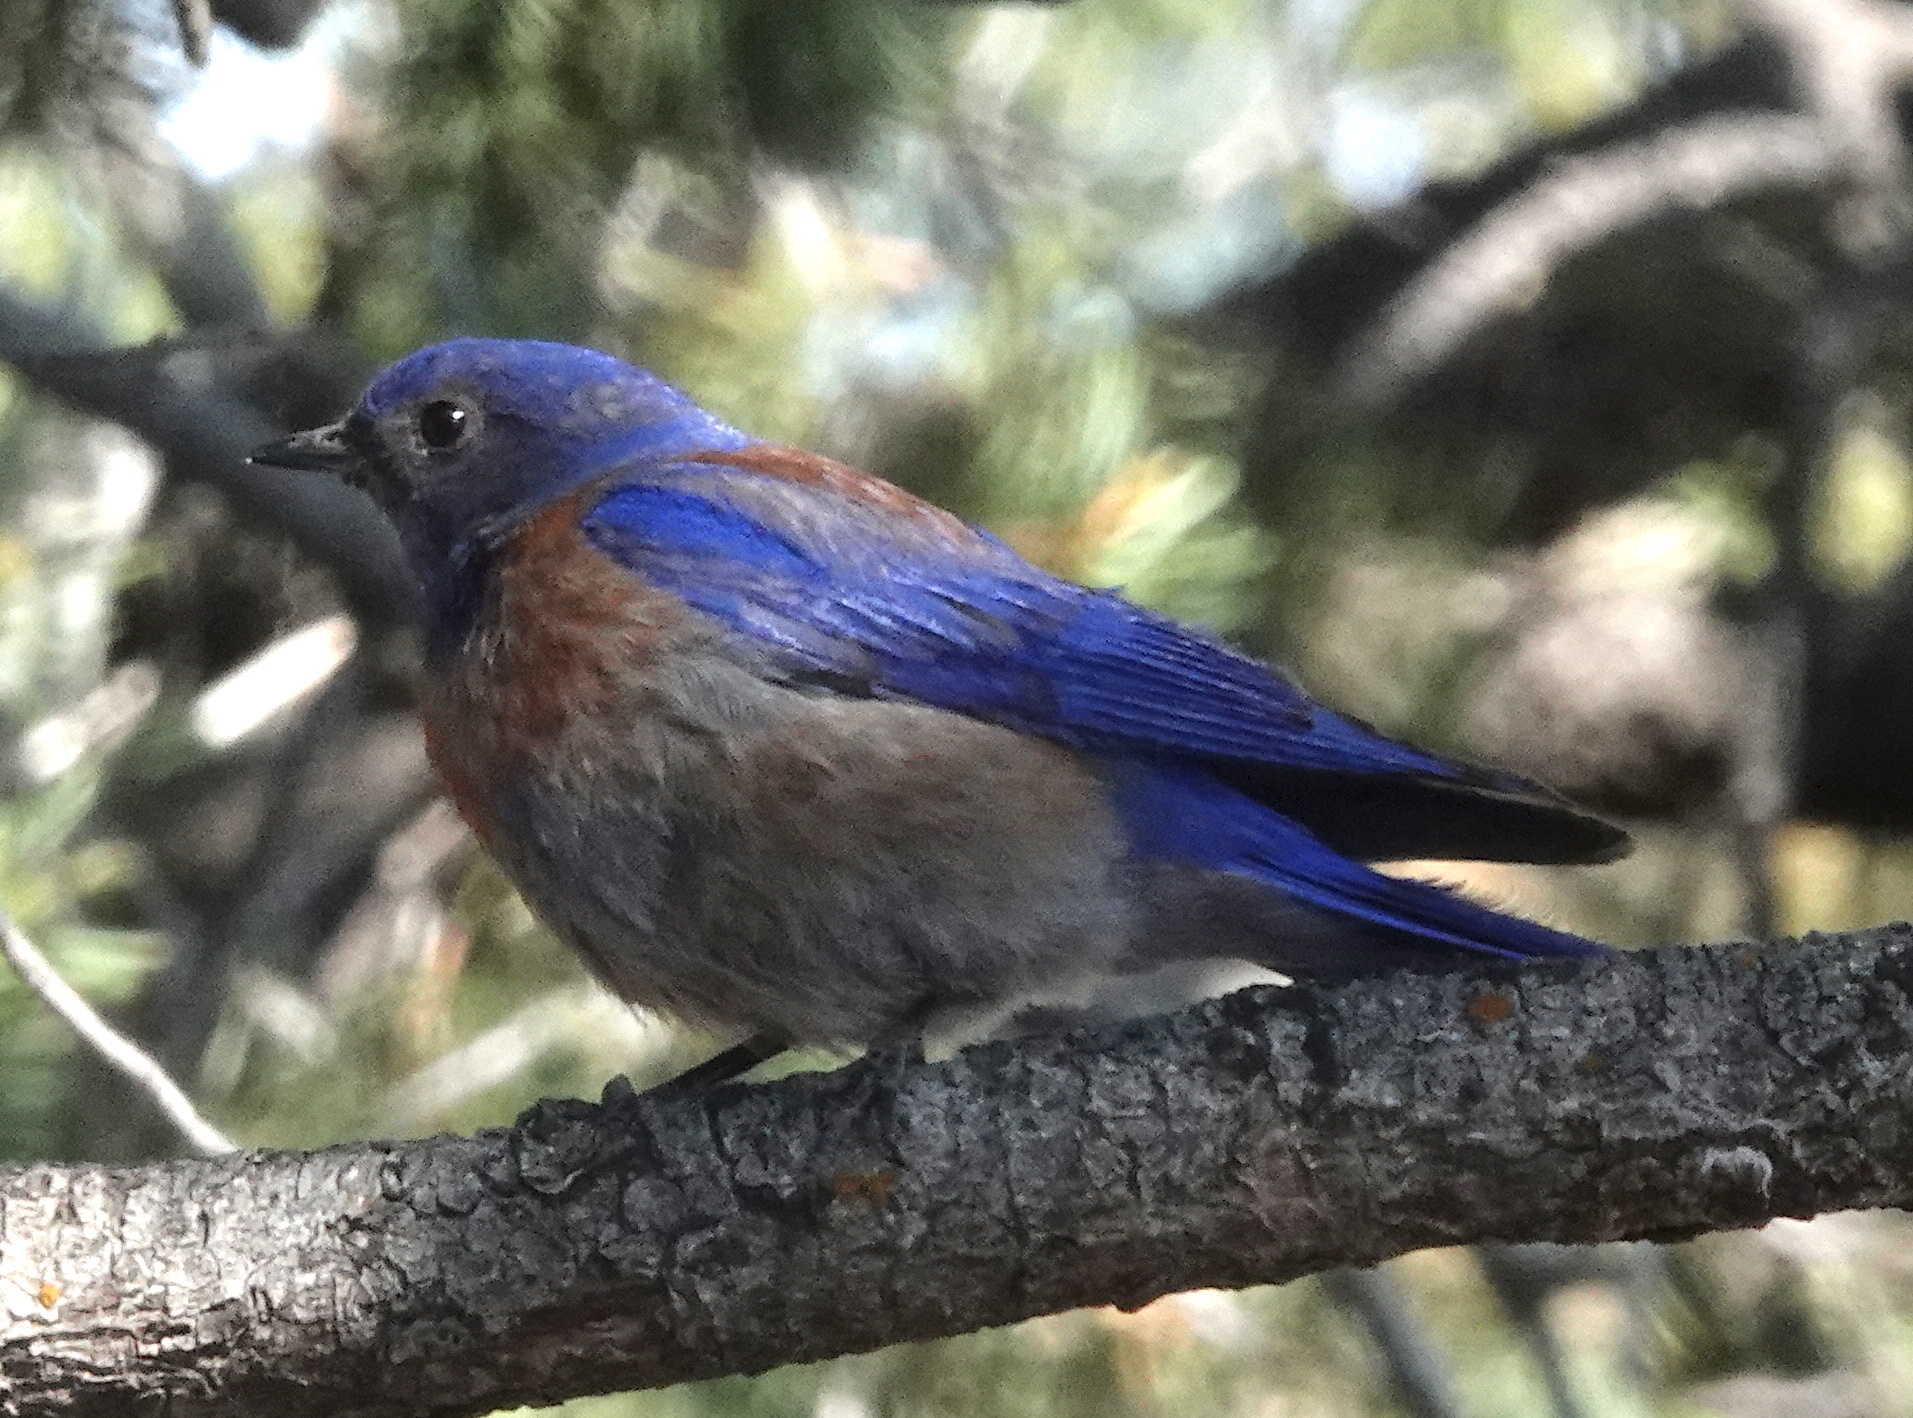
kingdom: Animalia
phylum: Chordata
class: Aves
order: Passeriformes
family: Turdidae
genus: Sialia
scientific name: Sialia mexicana
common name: Western bluebird
